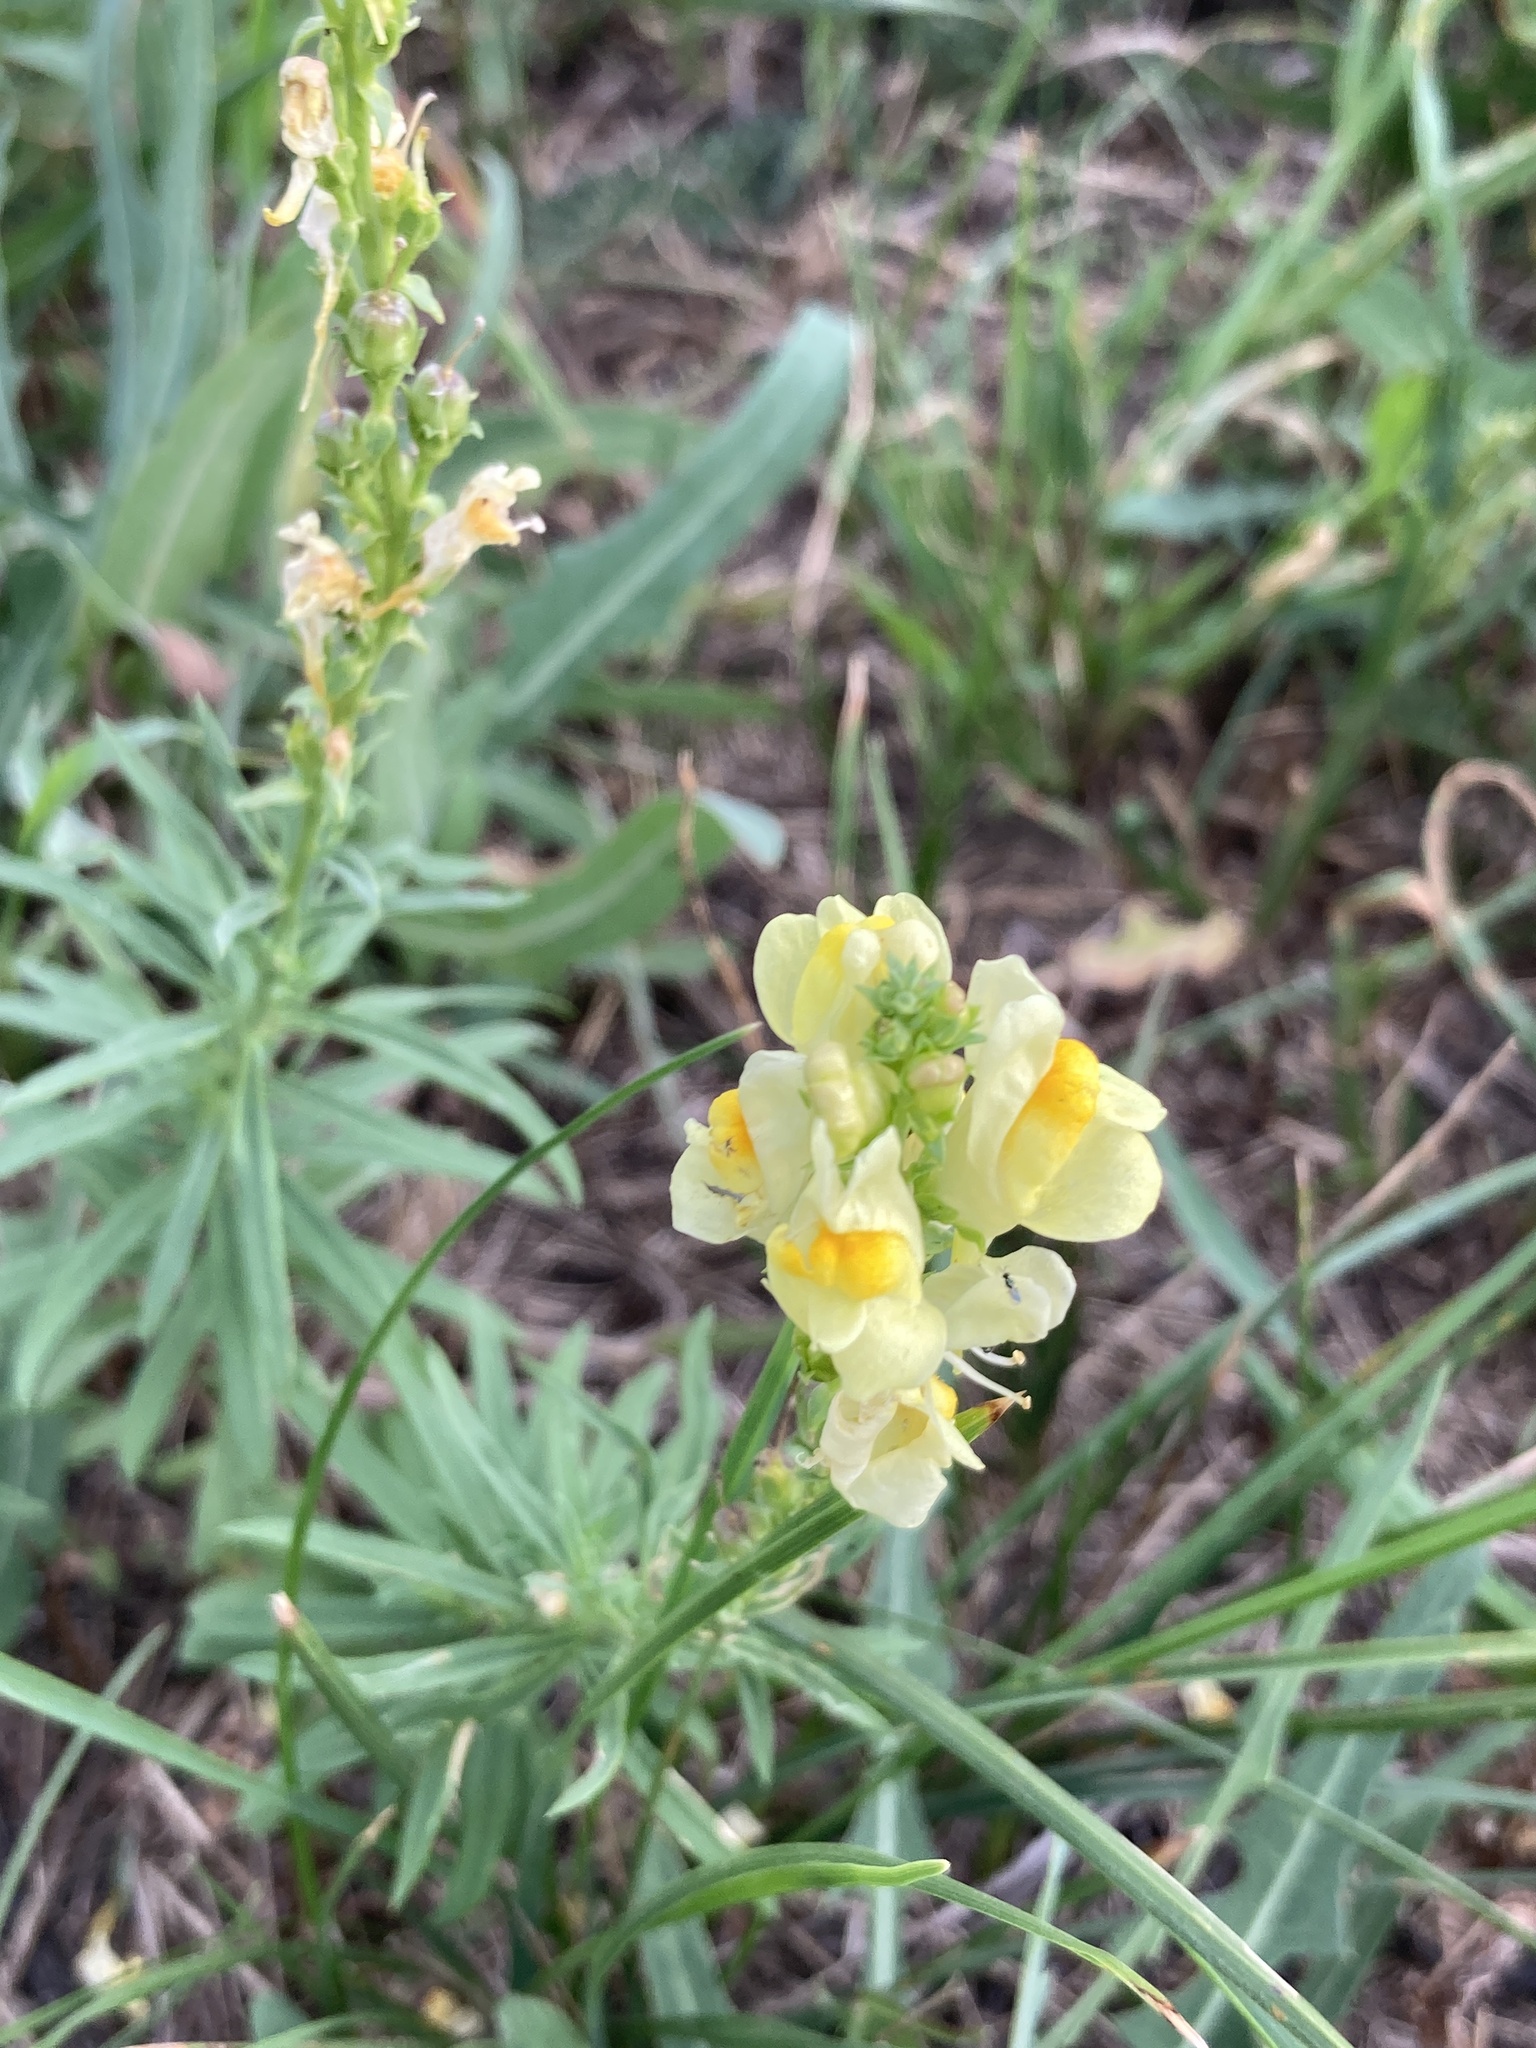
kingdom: Plantae
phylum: Tracheophyta
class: Magnoliopsida
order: Lamiales
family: Plantaginaceae
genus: Linaria
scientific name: Linaria vulgaris
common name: Butter and eggs
